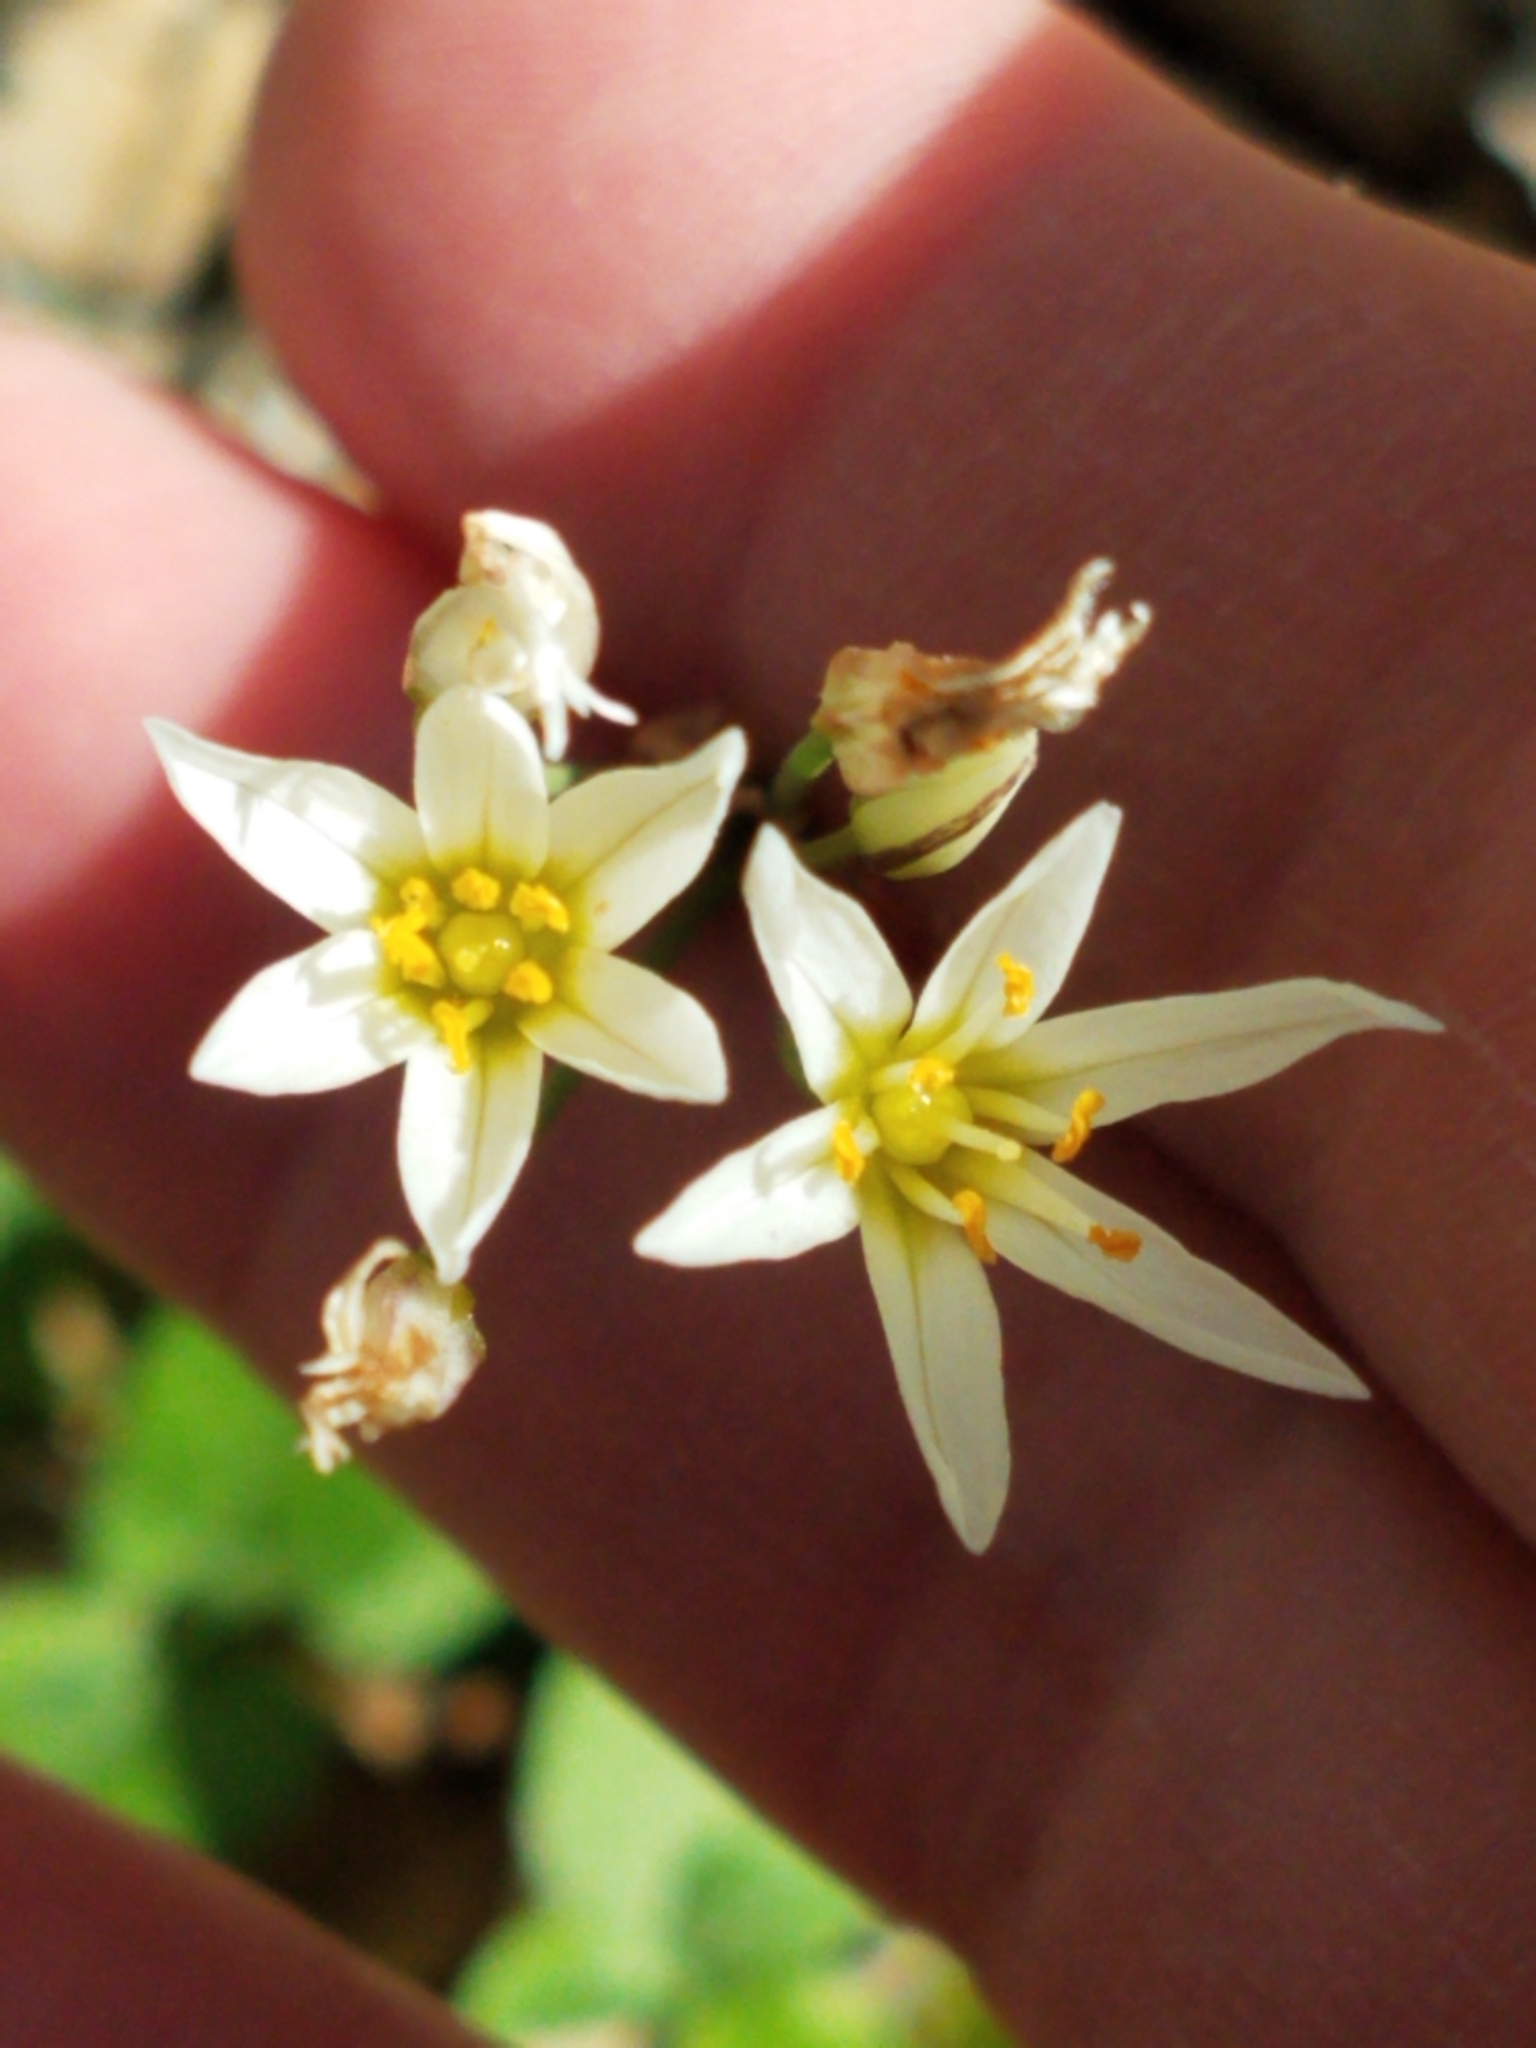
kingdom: Plantae
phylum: Tracheophyta
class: Liliopsida
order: Asparagales
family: Amaryllidaceae
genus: Nothoscordum
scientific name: Nothoscordum bivalve
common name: Crow-poison
